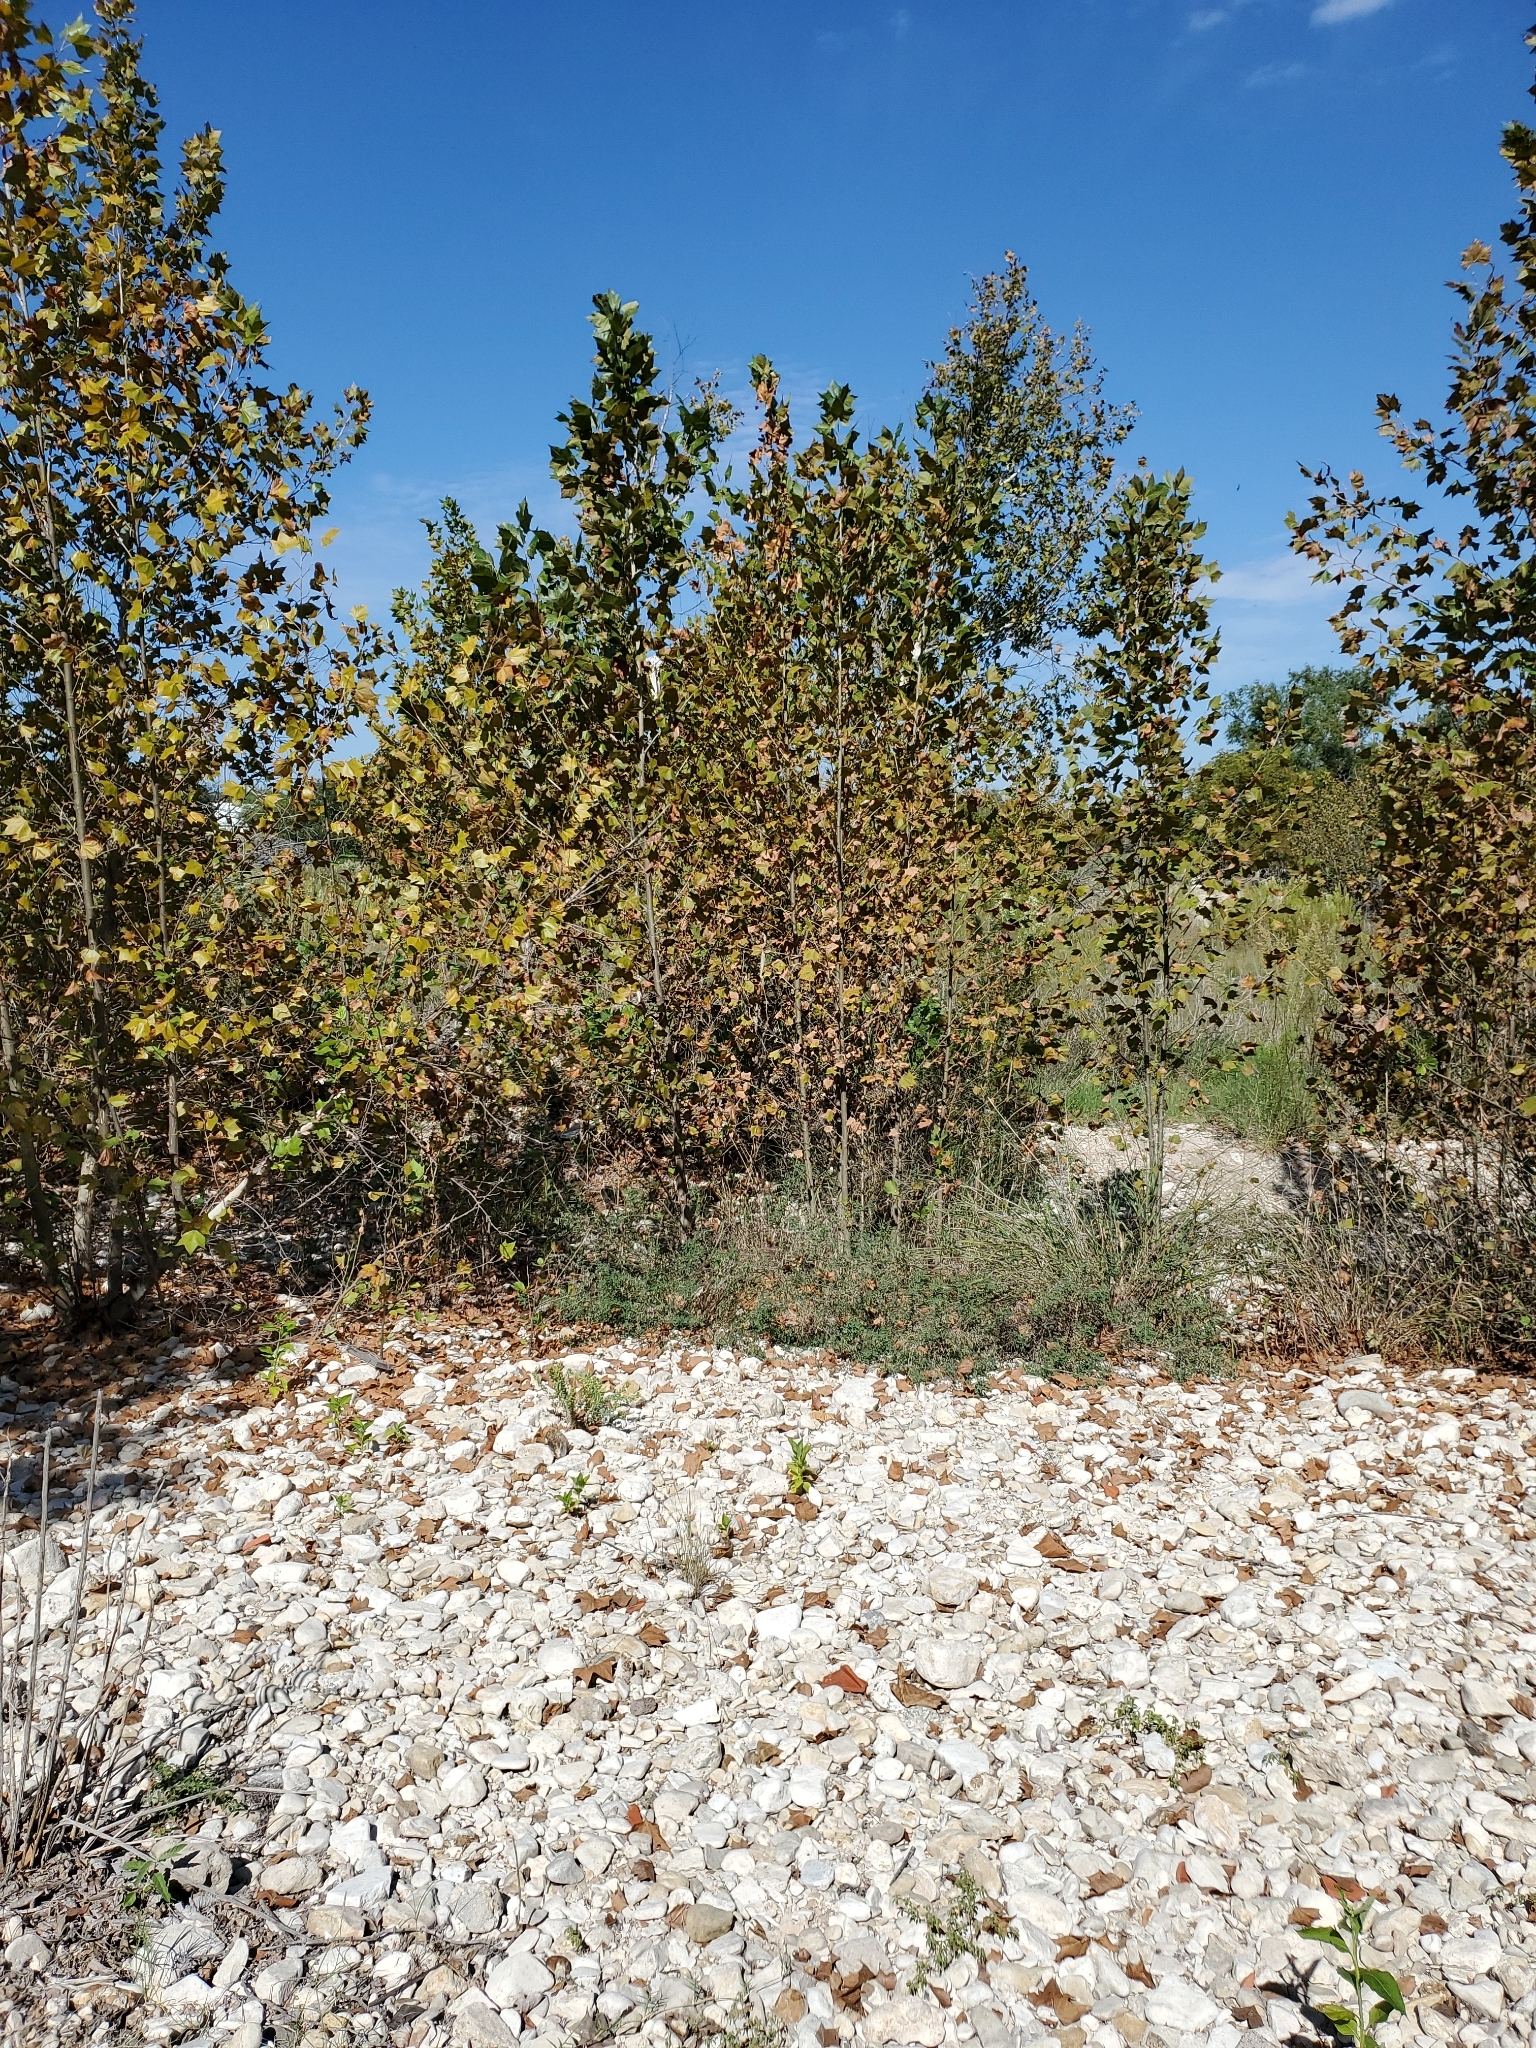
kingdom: Plantae
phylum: Tracheophyta
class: Magnoliopsida
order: Proteales
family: Platanaceae
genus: Platanus
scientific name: Platanus occidentalis
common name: American sycamore
